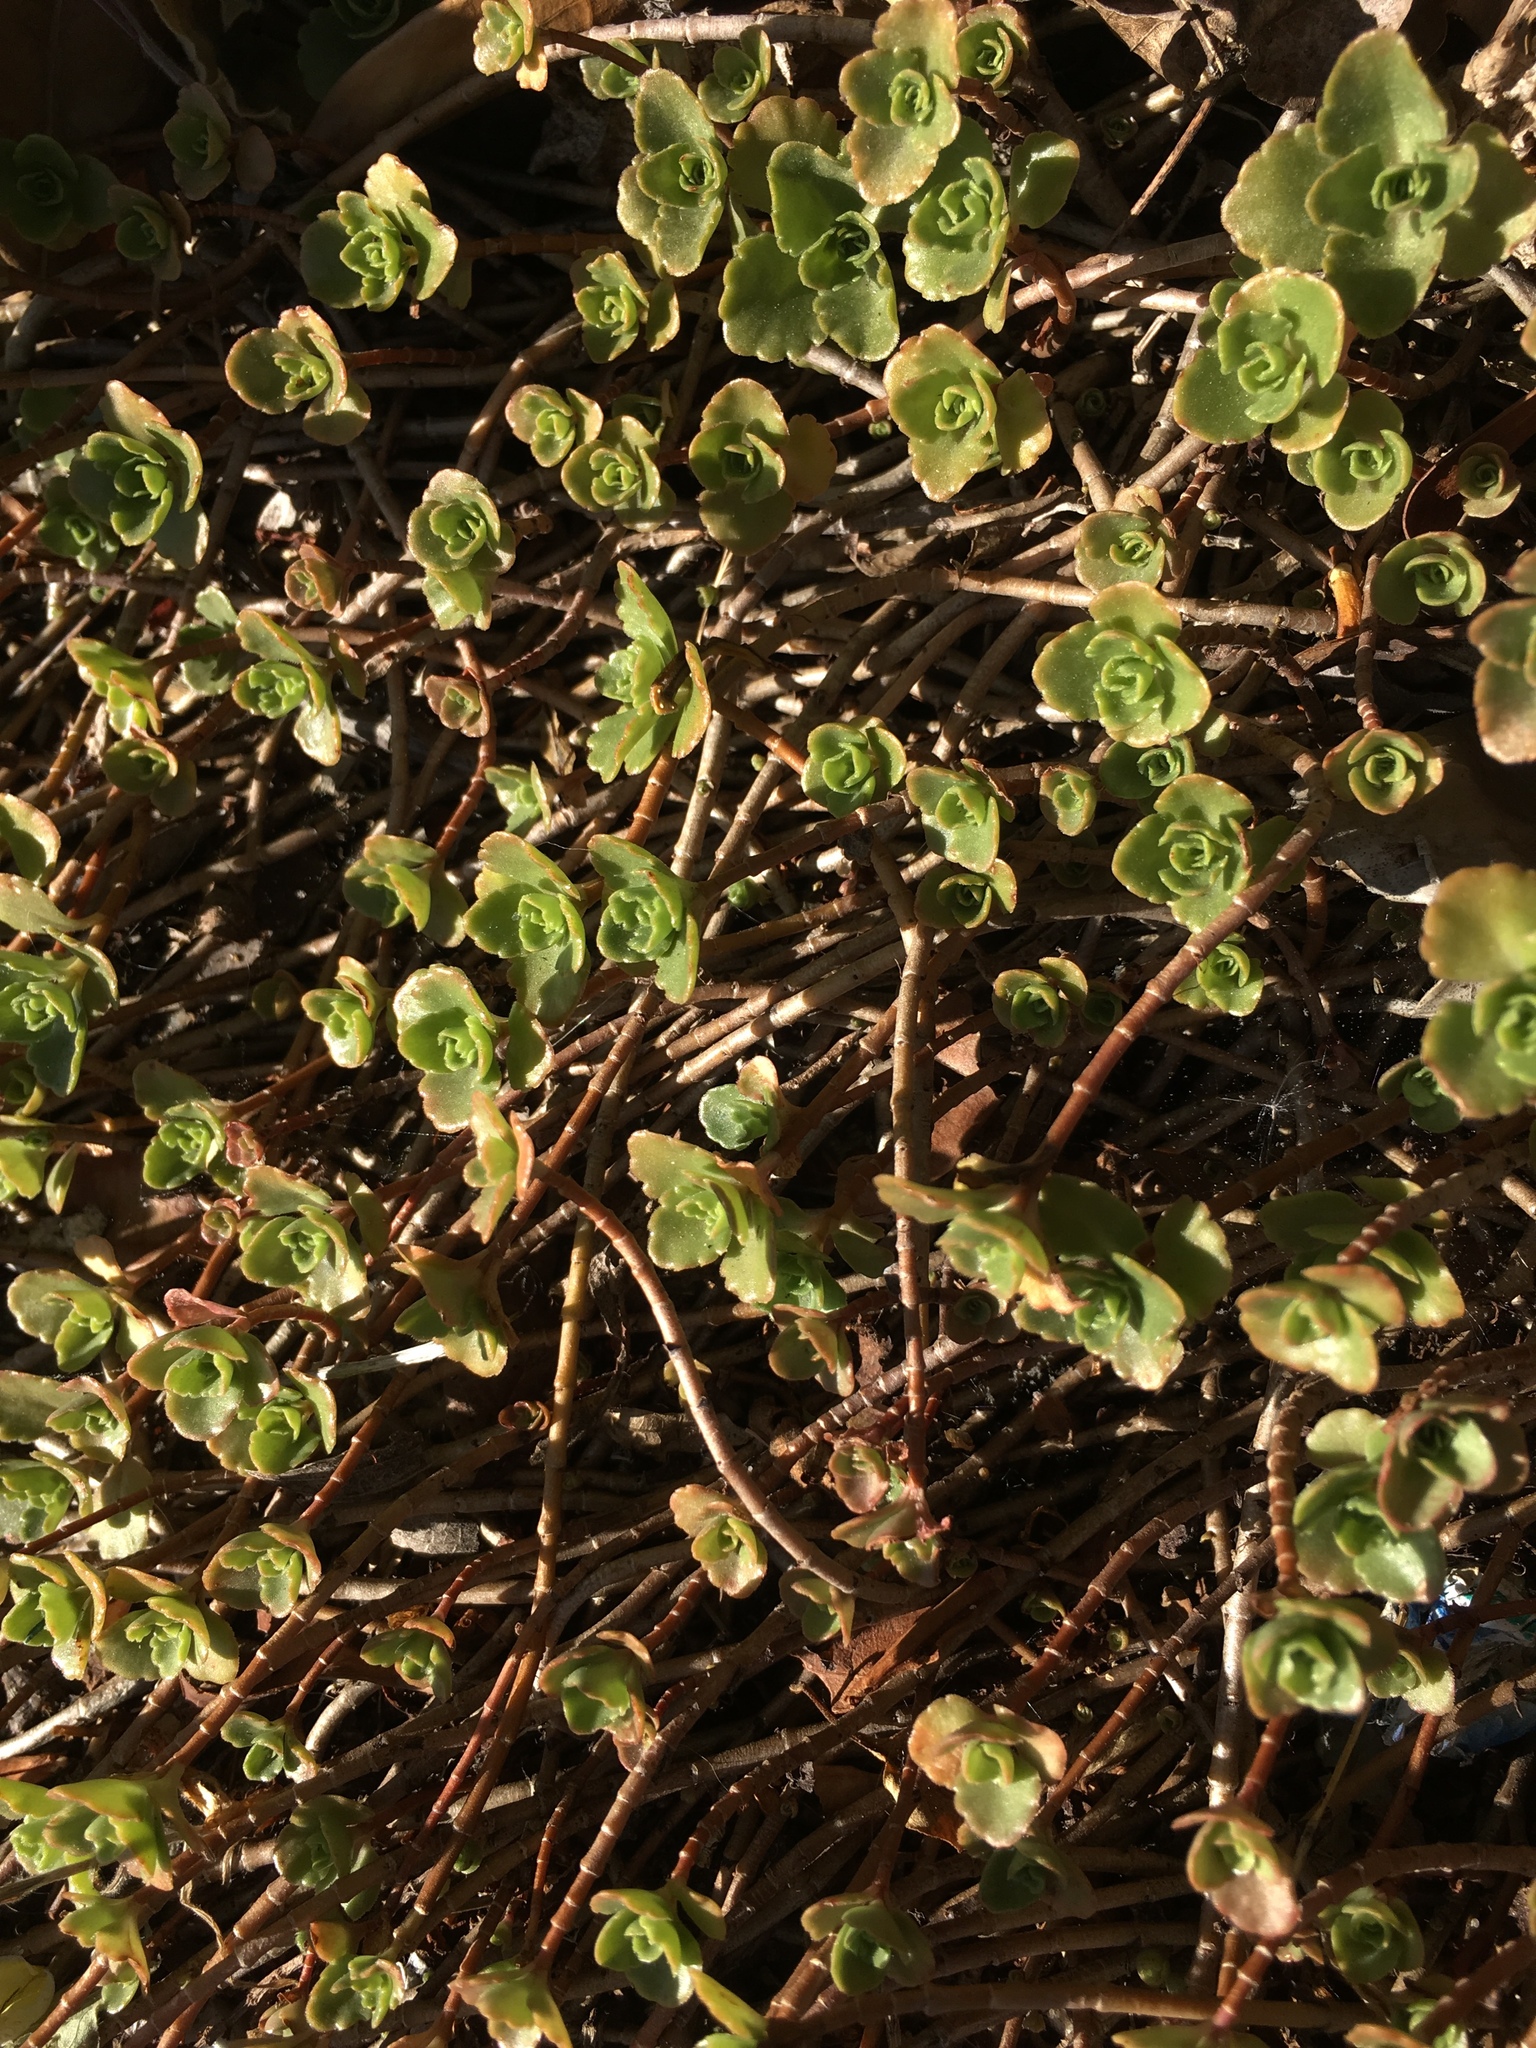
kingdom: Plantae
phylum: Tracheophyta
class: Magnoliopsida
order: Saxifragales
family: Crassulaceae
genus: Phedimus
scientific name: Phedimus spurius
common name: Caucasian stonecrop
